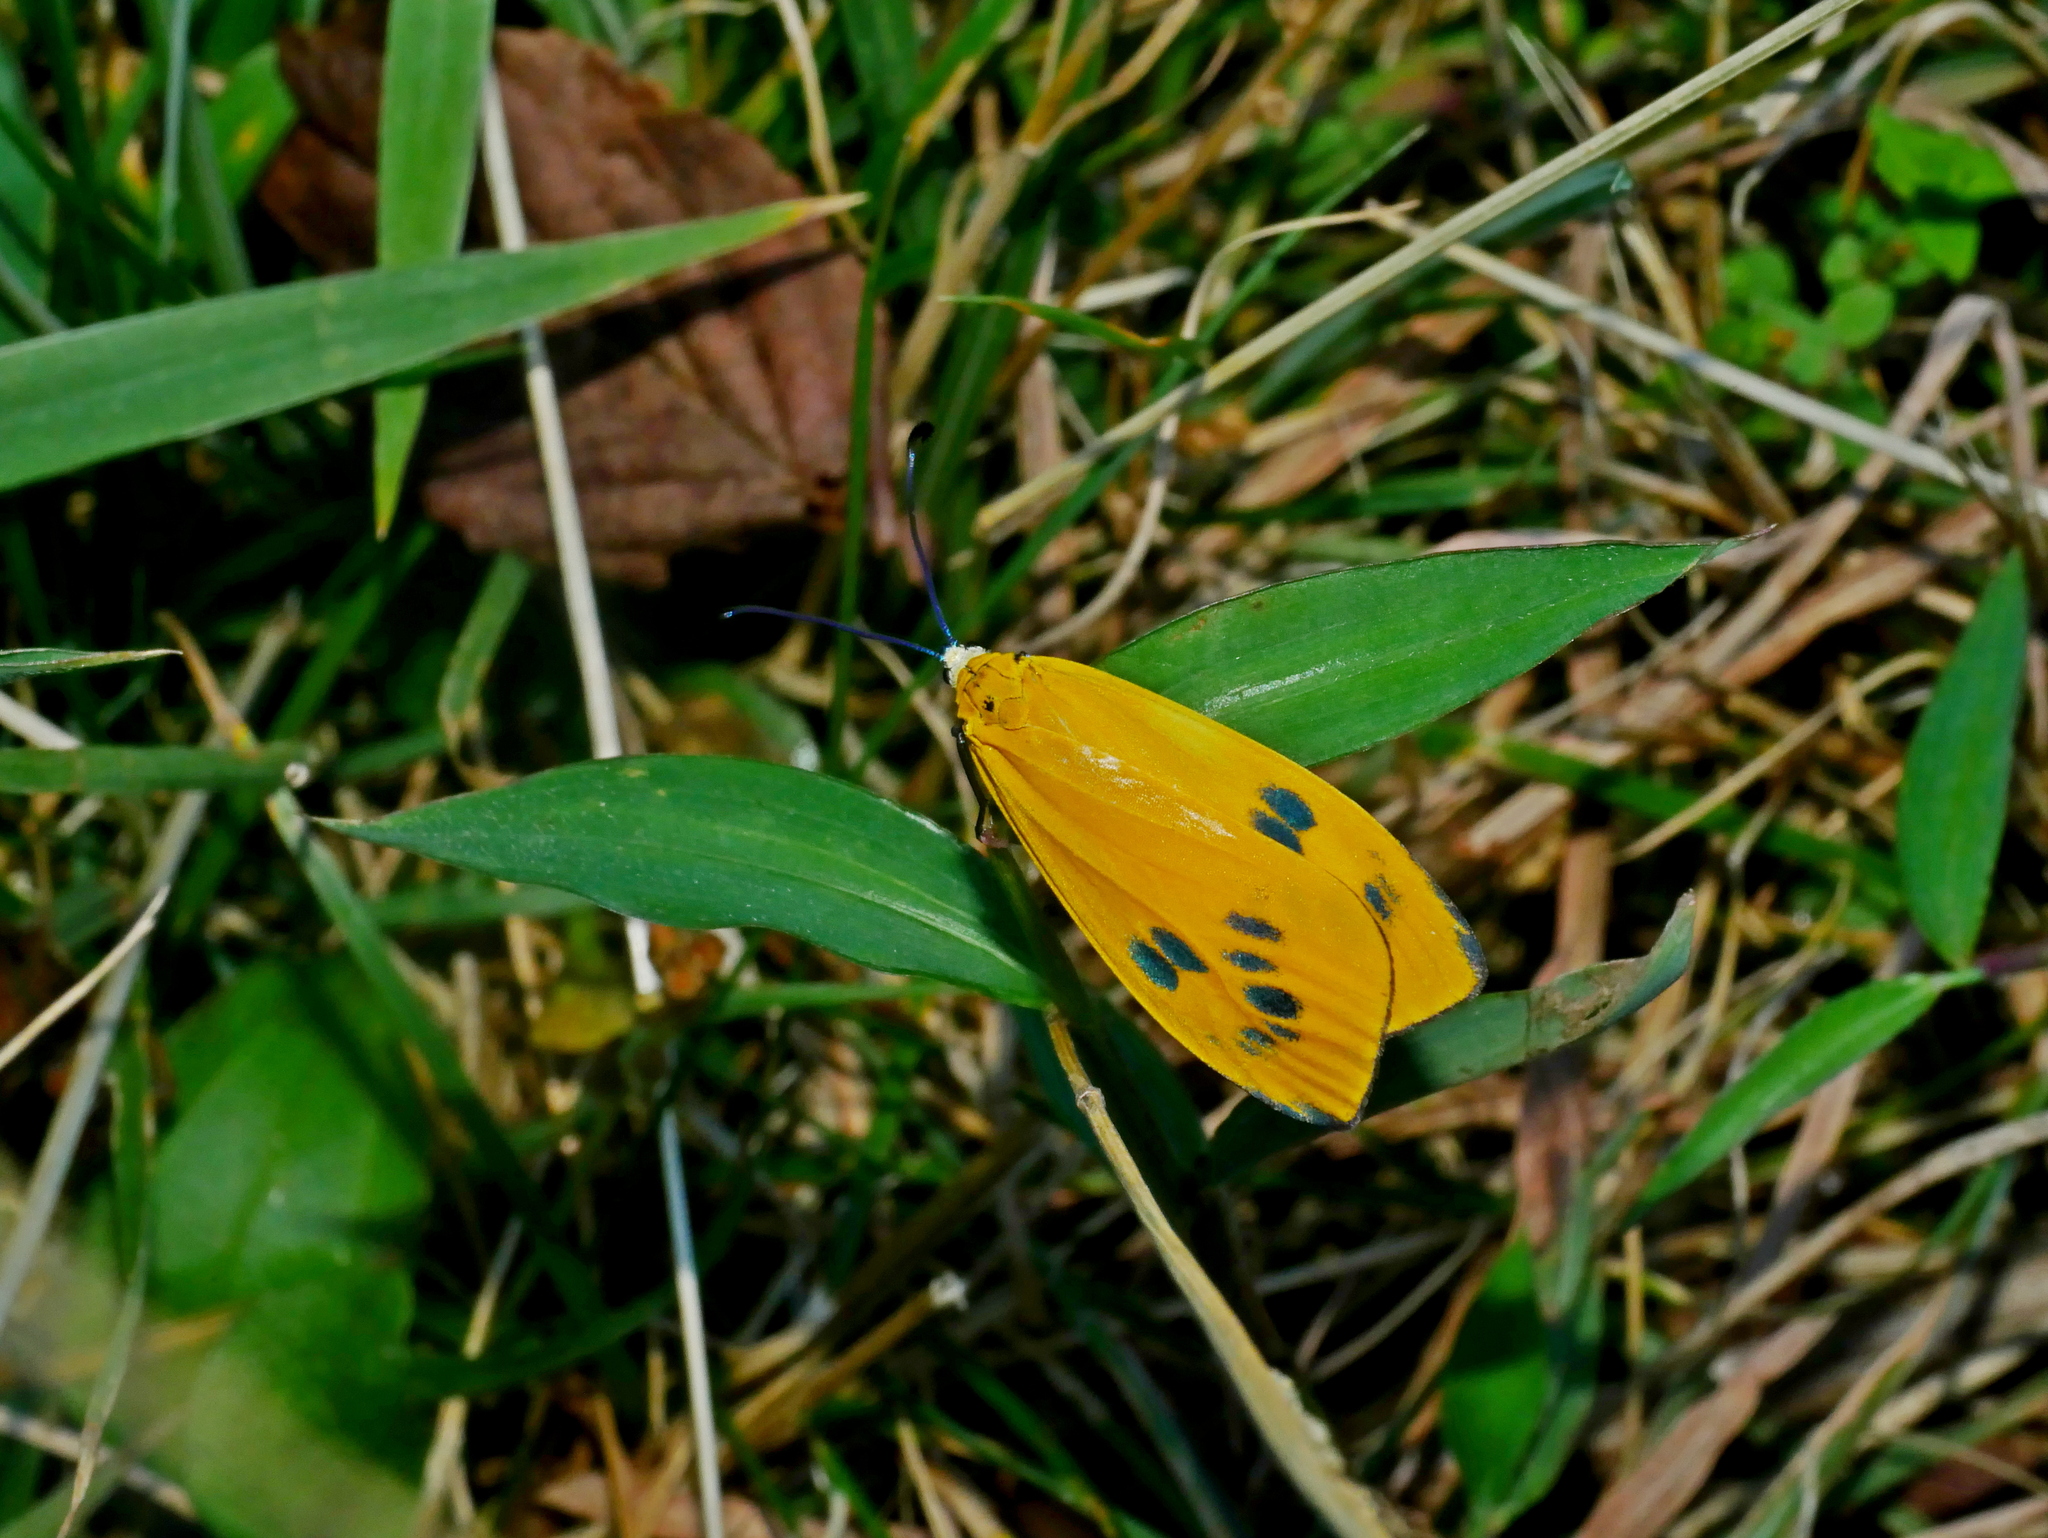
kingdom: Animalia
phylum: Arthropoda
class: Insecta
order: Lepidoptera
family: Zygaenidae
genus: Soritia
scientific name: Soritia azurea
